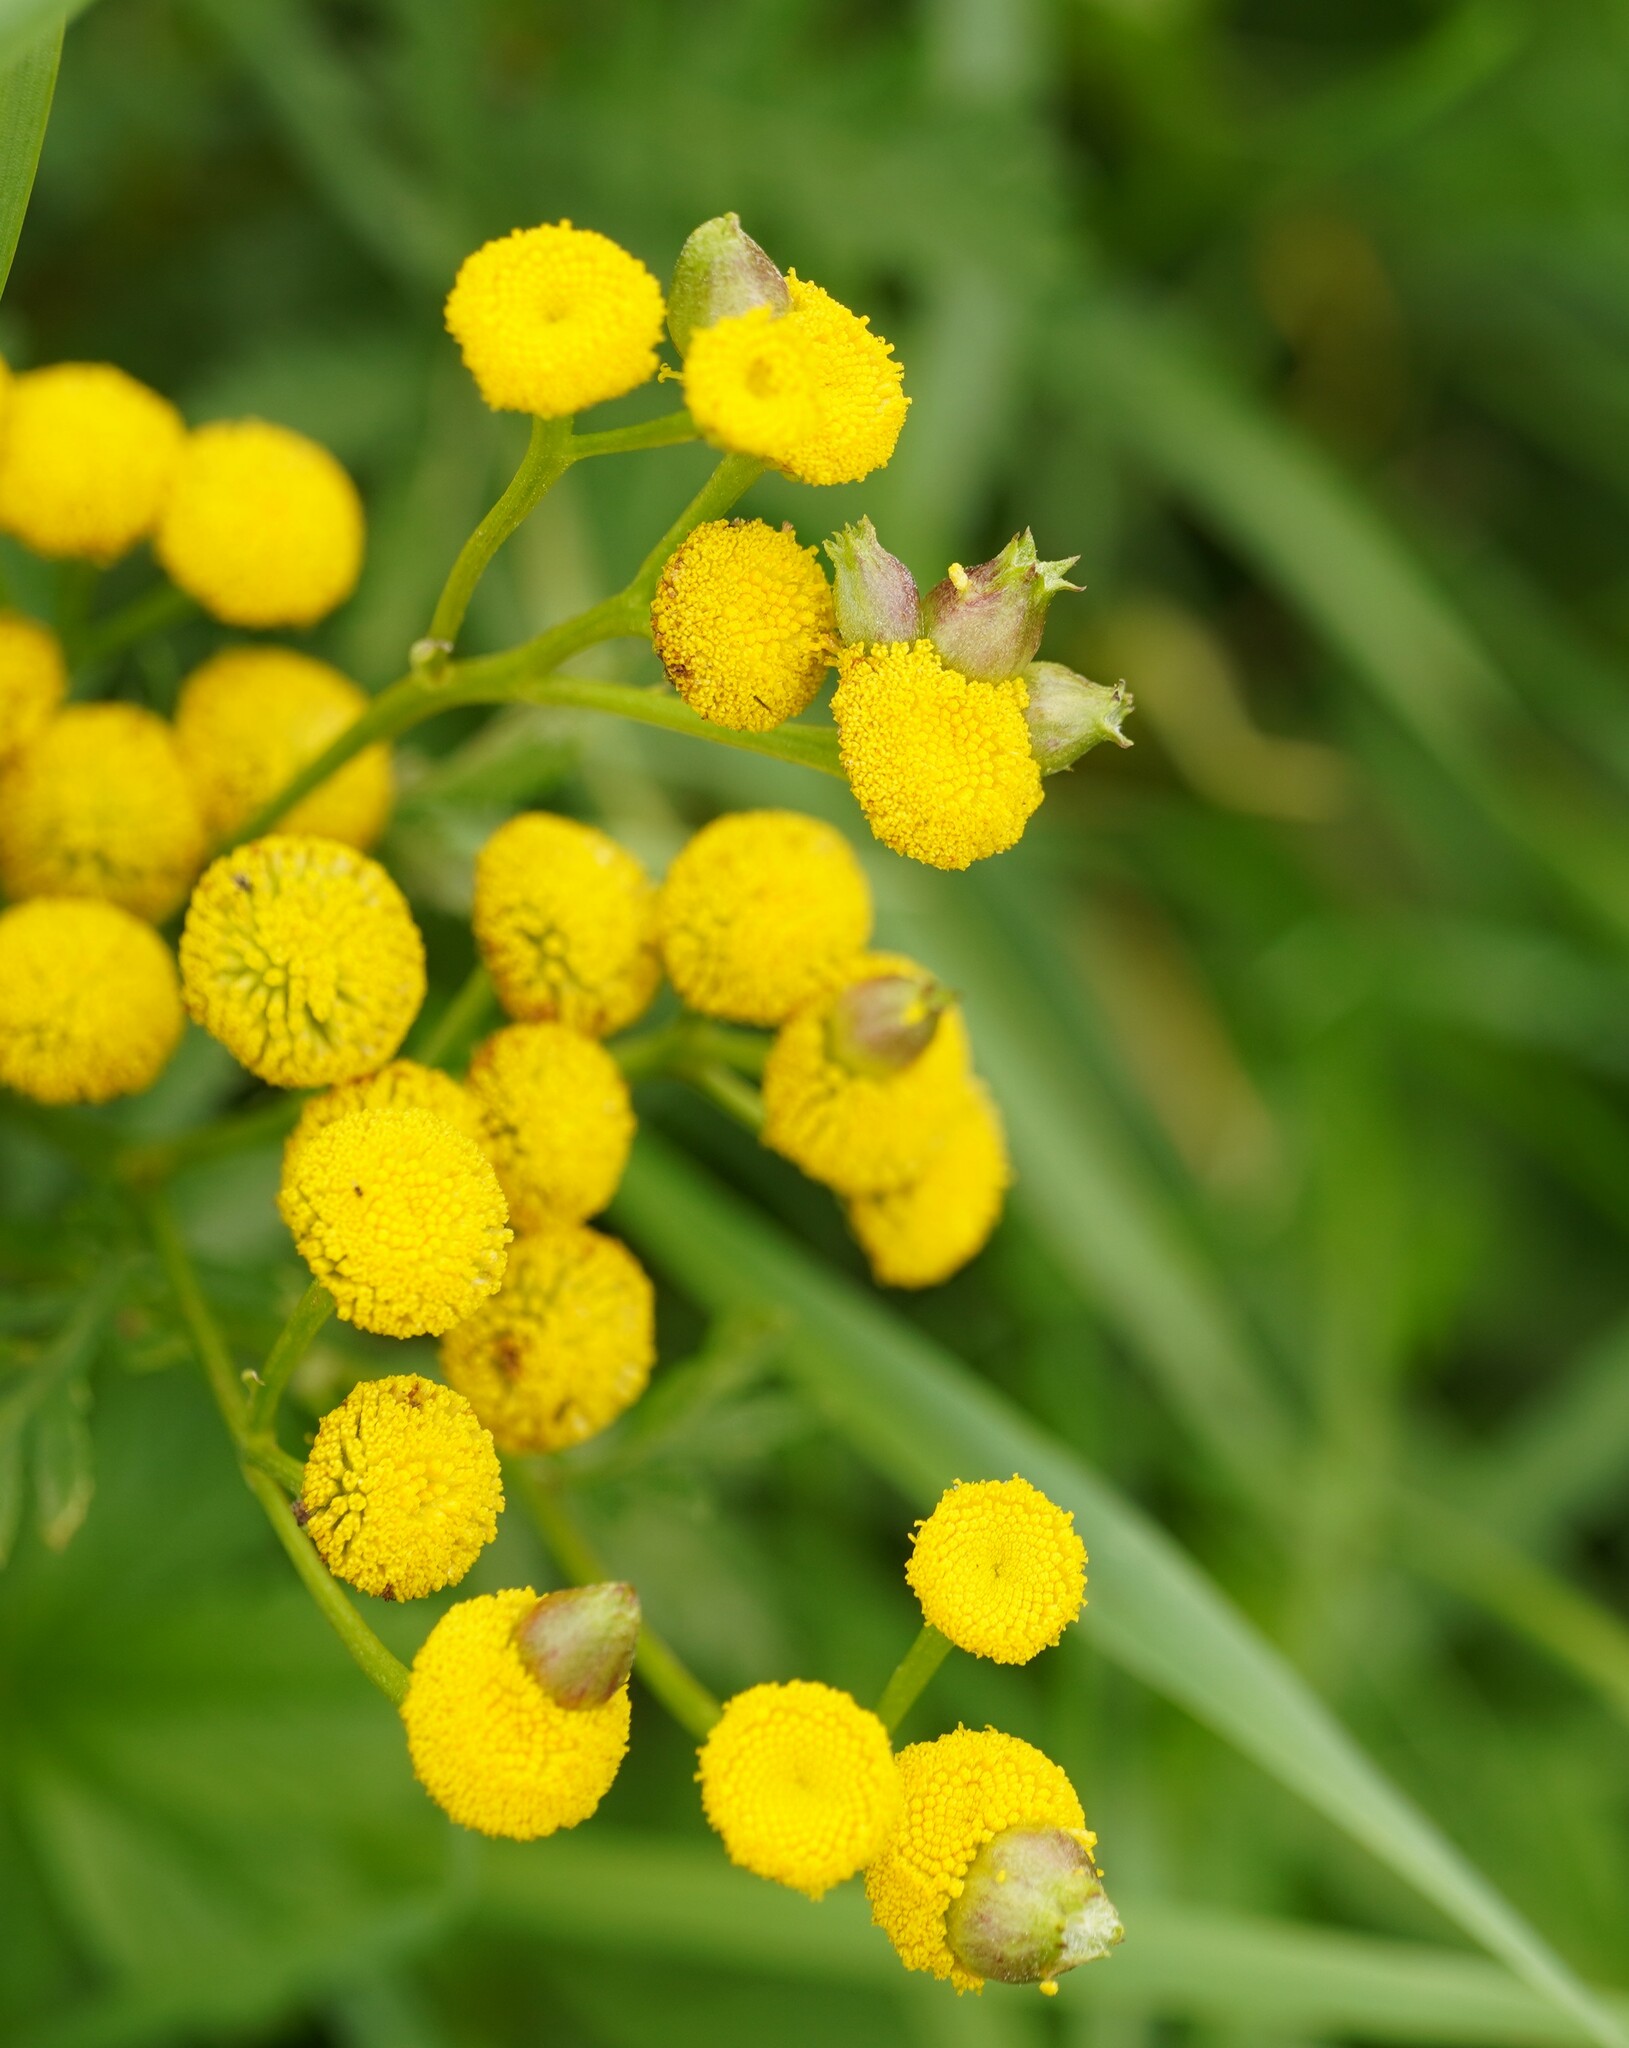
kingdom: Animalia
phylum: Arthropoda
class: Insecta
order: Diptera
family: Cecidomyiidae
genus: Rhopalomyia
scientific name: Rhopalomyia tanaceticolus
